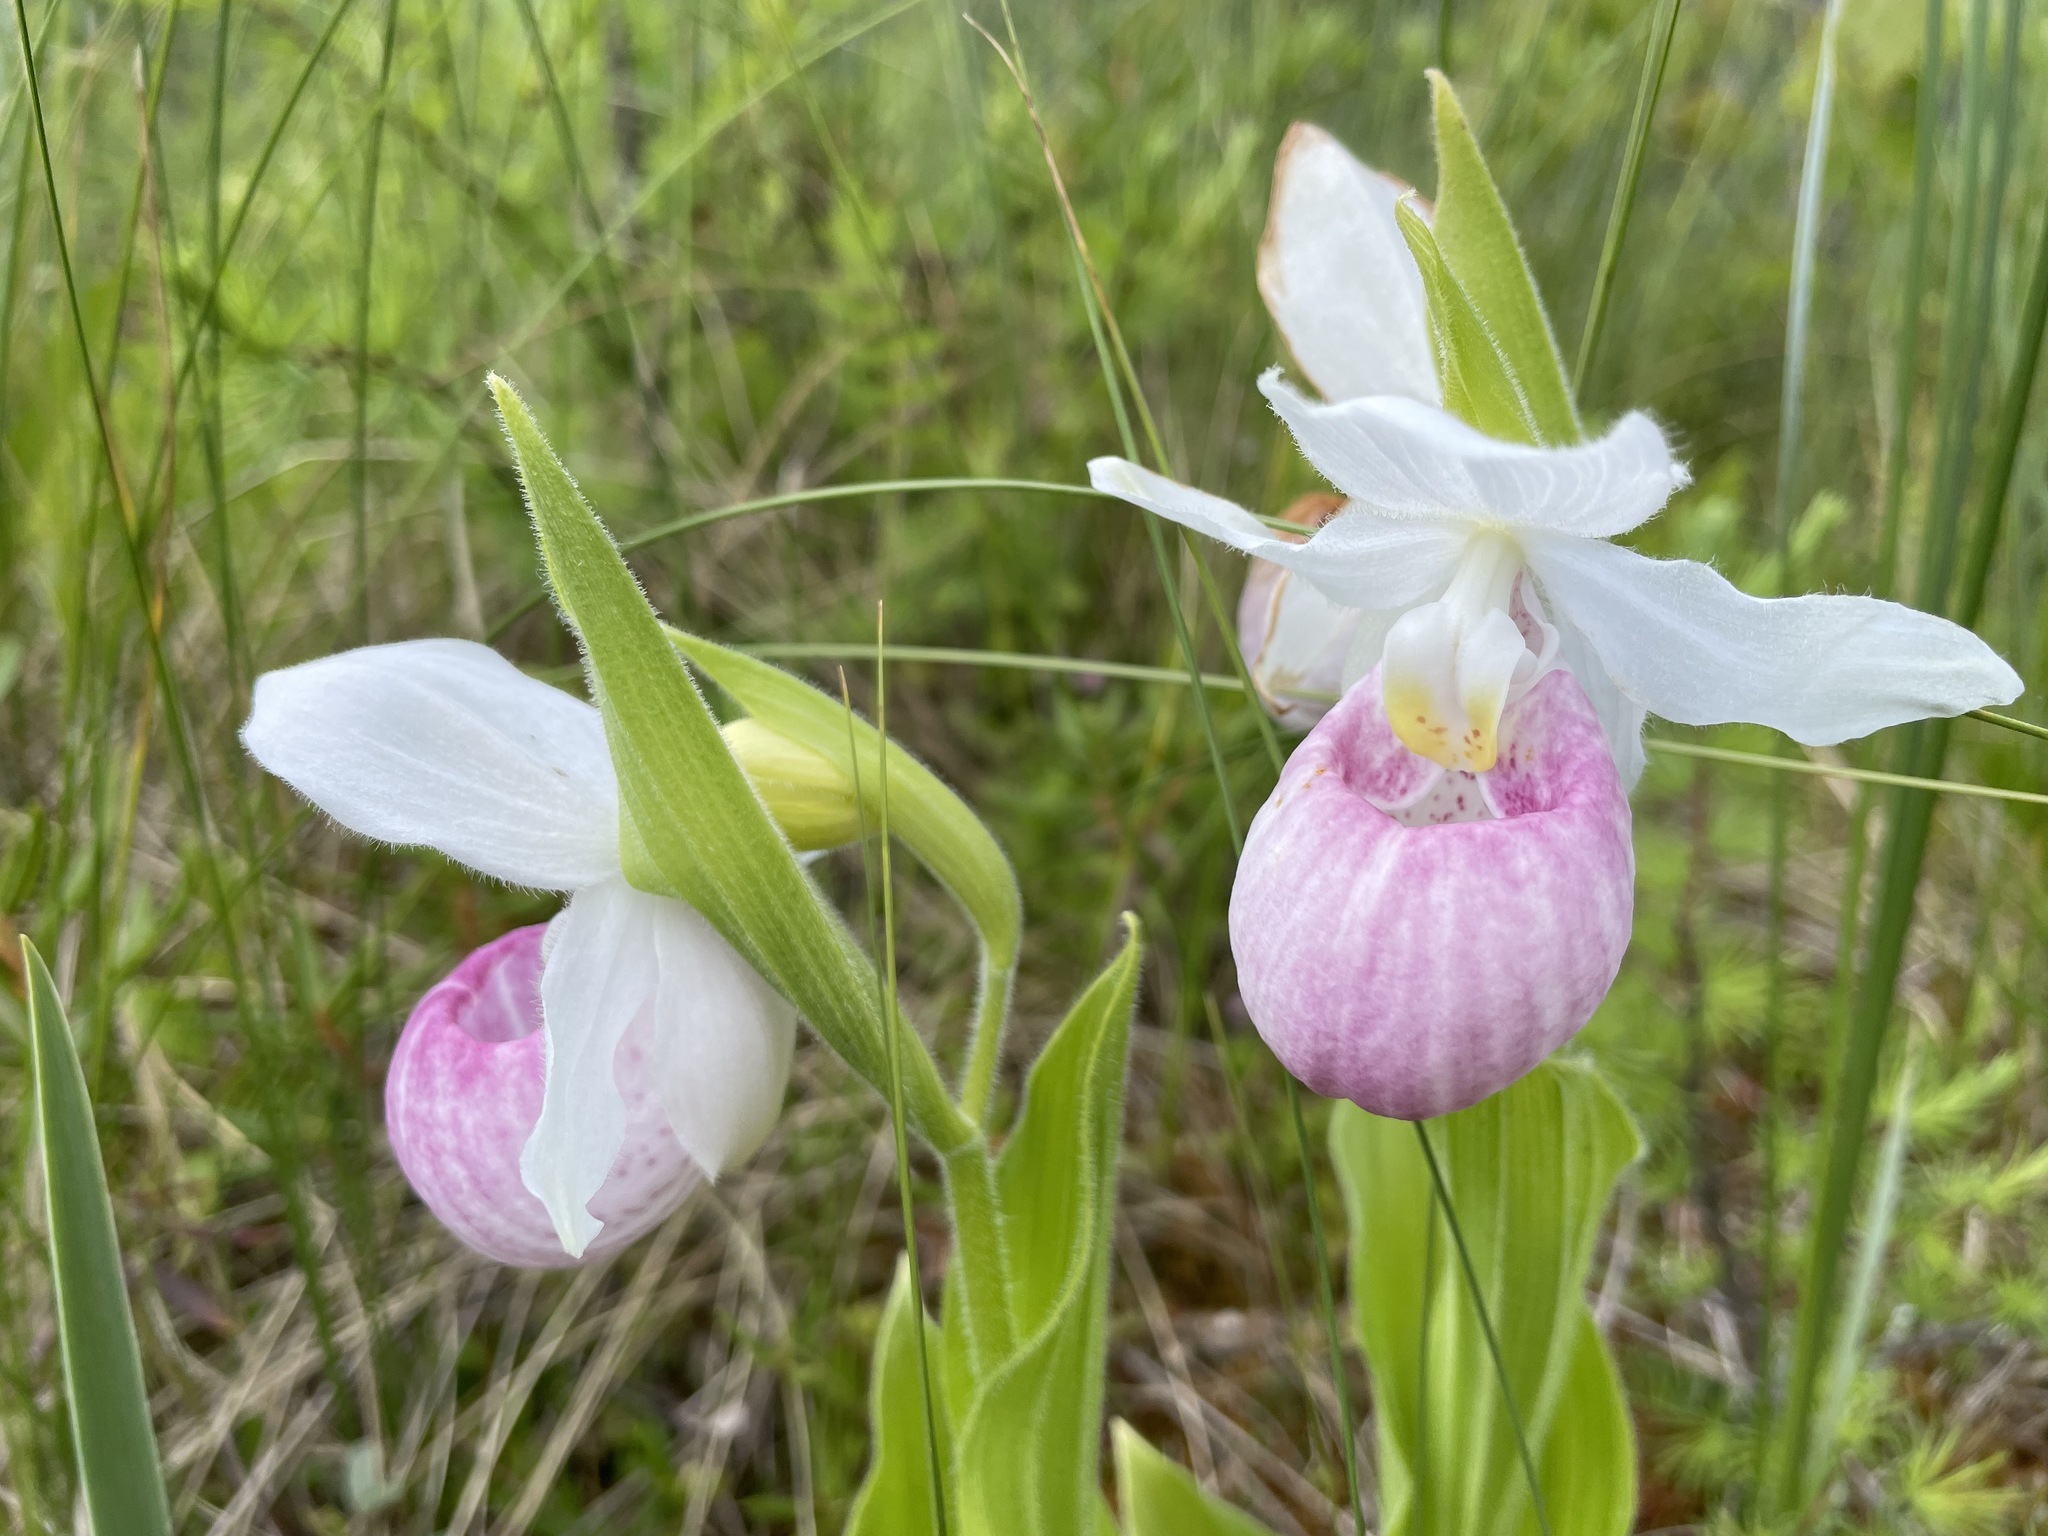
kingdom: Plantae
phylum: Tracheophyta
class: Liliopsida
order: Asparagales
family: Orchidaceae
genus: Cypripedium
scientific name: Cypripedium reginae
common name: Queen lady's-slipper
